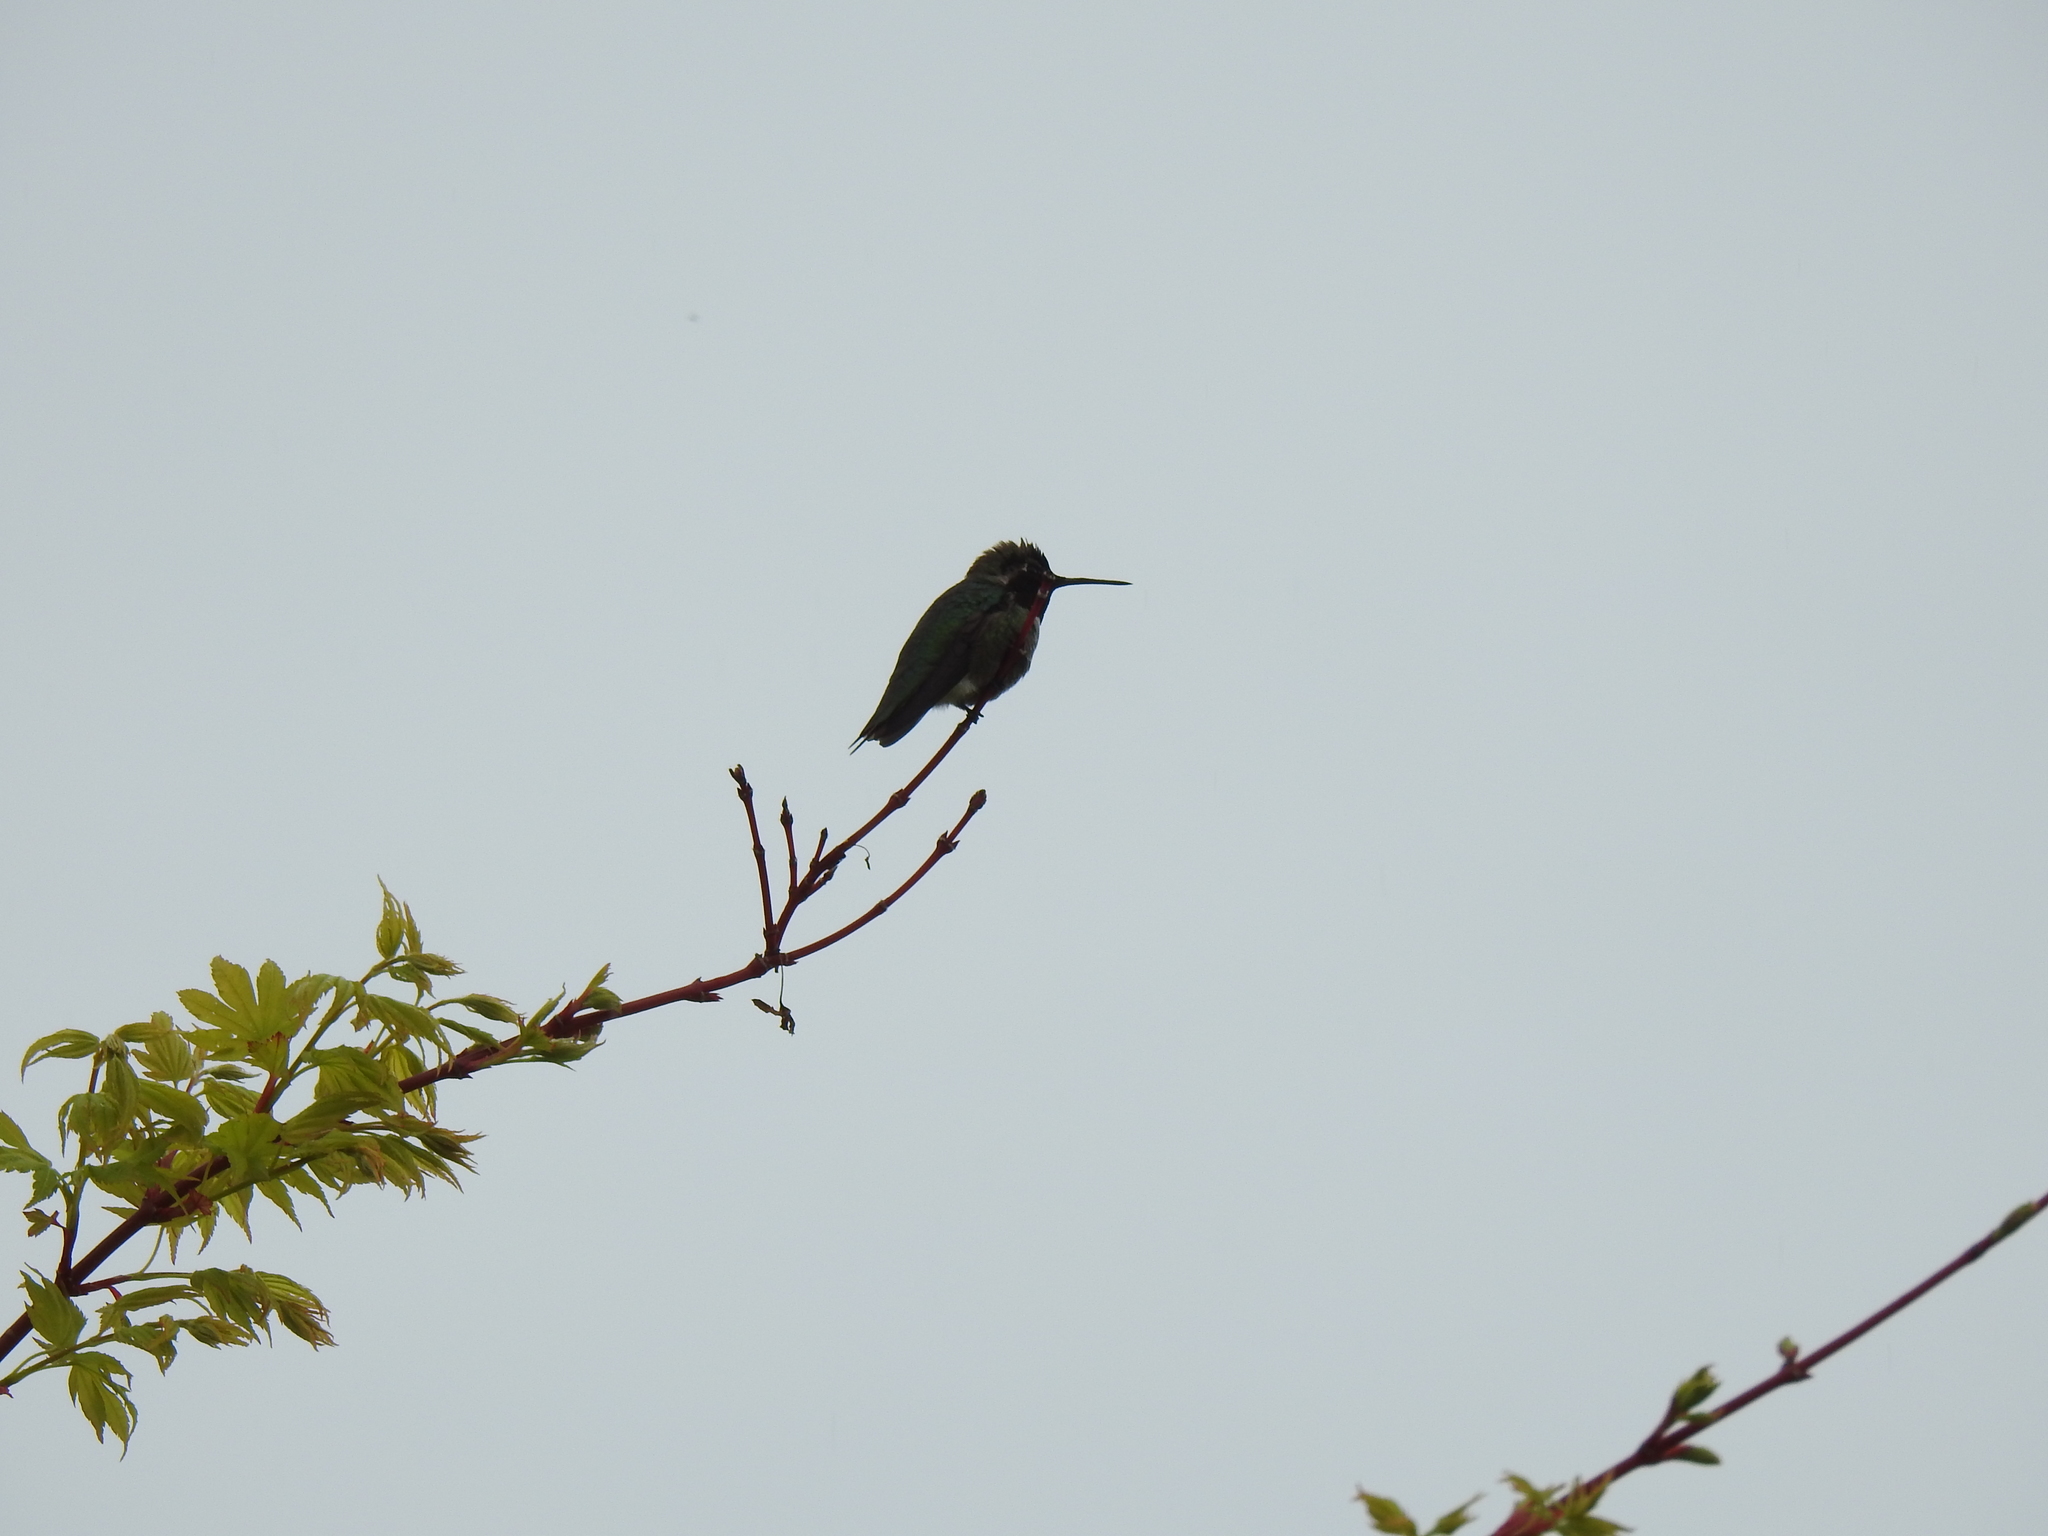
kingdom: Animalia
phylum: Chordata
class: Aves
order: Apodiformes
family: Trochilidae
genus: Calypte
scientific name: Calypte anna
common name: Anna's hummingbird
